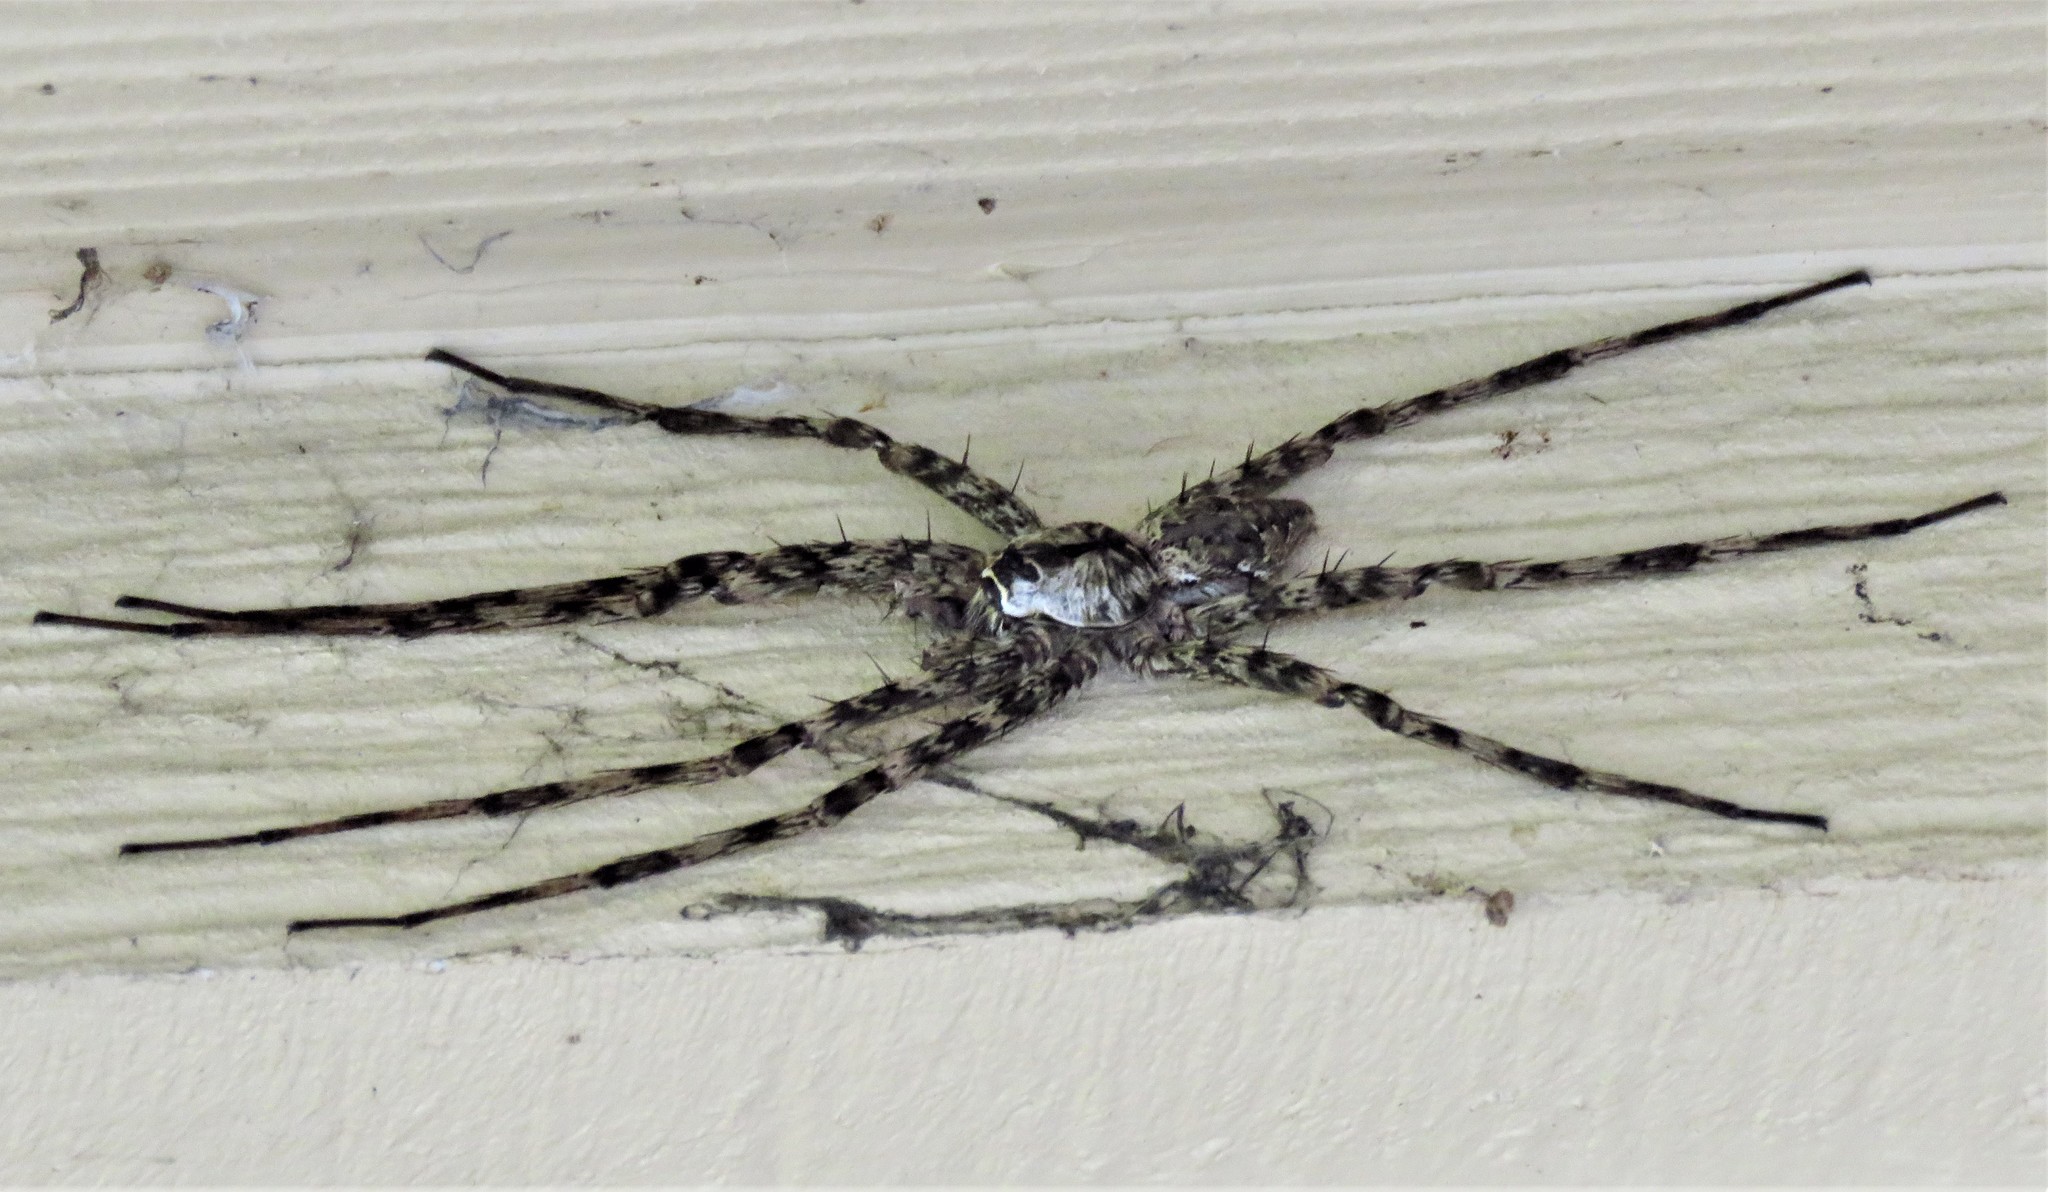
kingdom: Animalia
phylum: Arthropoda
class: Arachnida
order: Araneae
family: Pisauridae
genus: Dolomedes
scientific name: Dolomedes albineus
